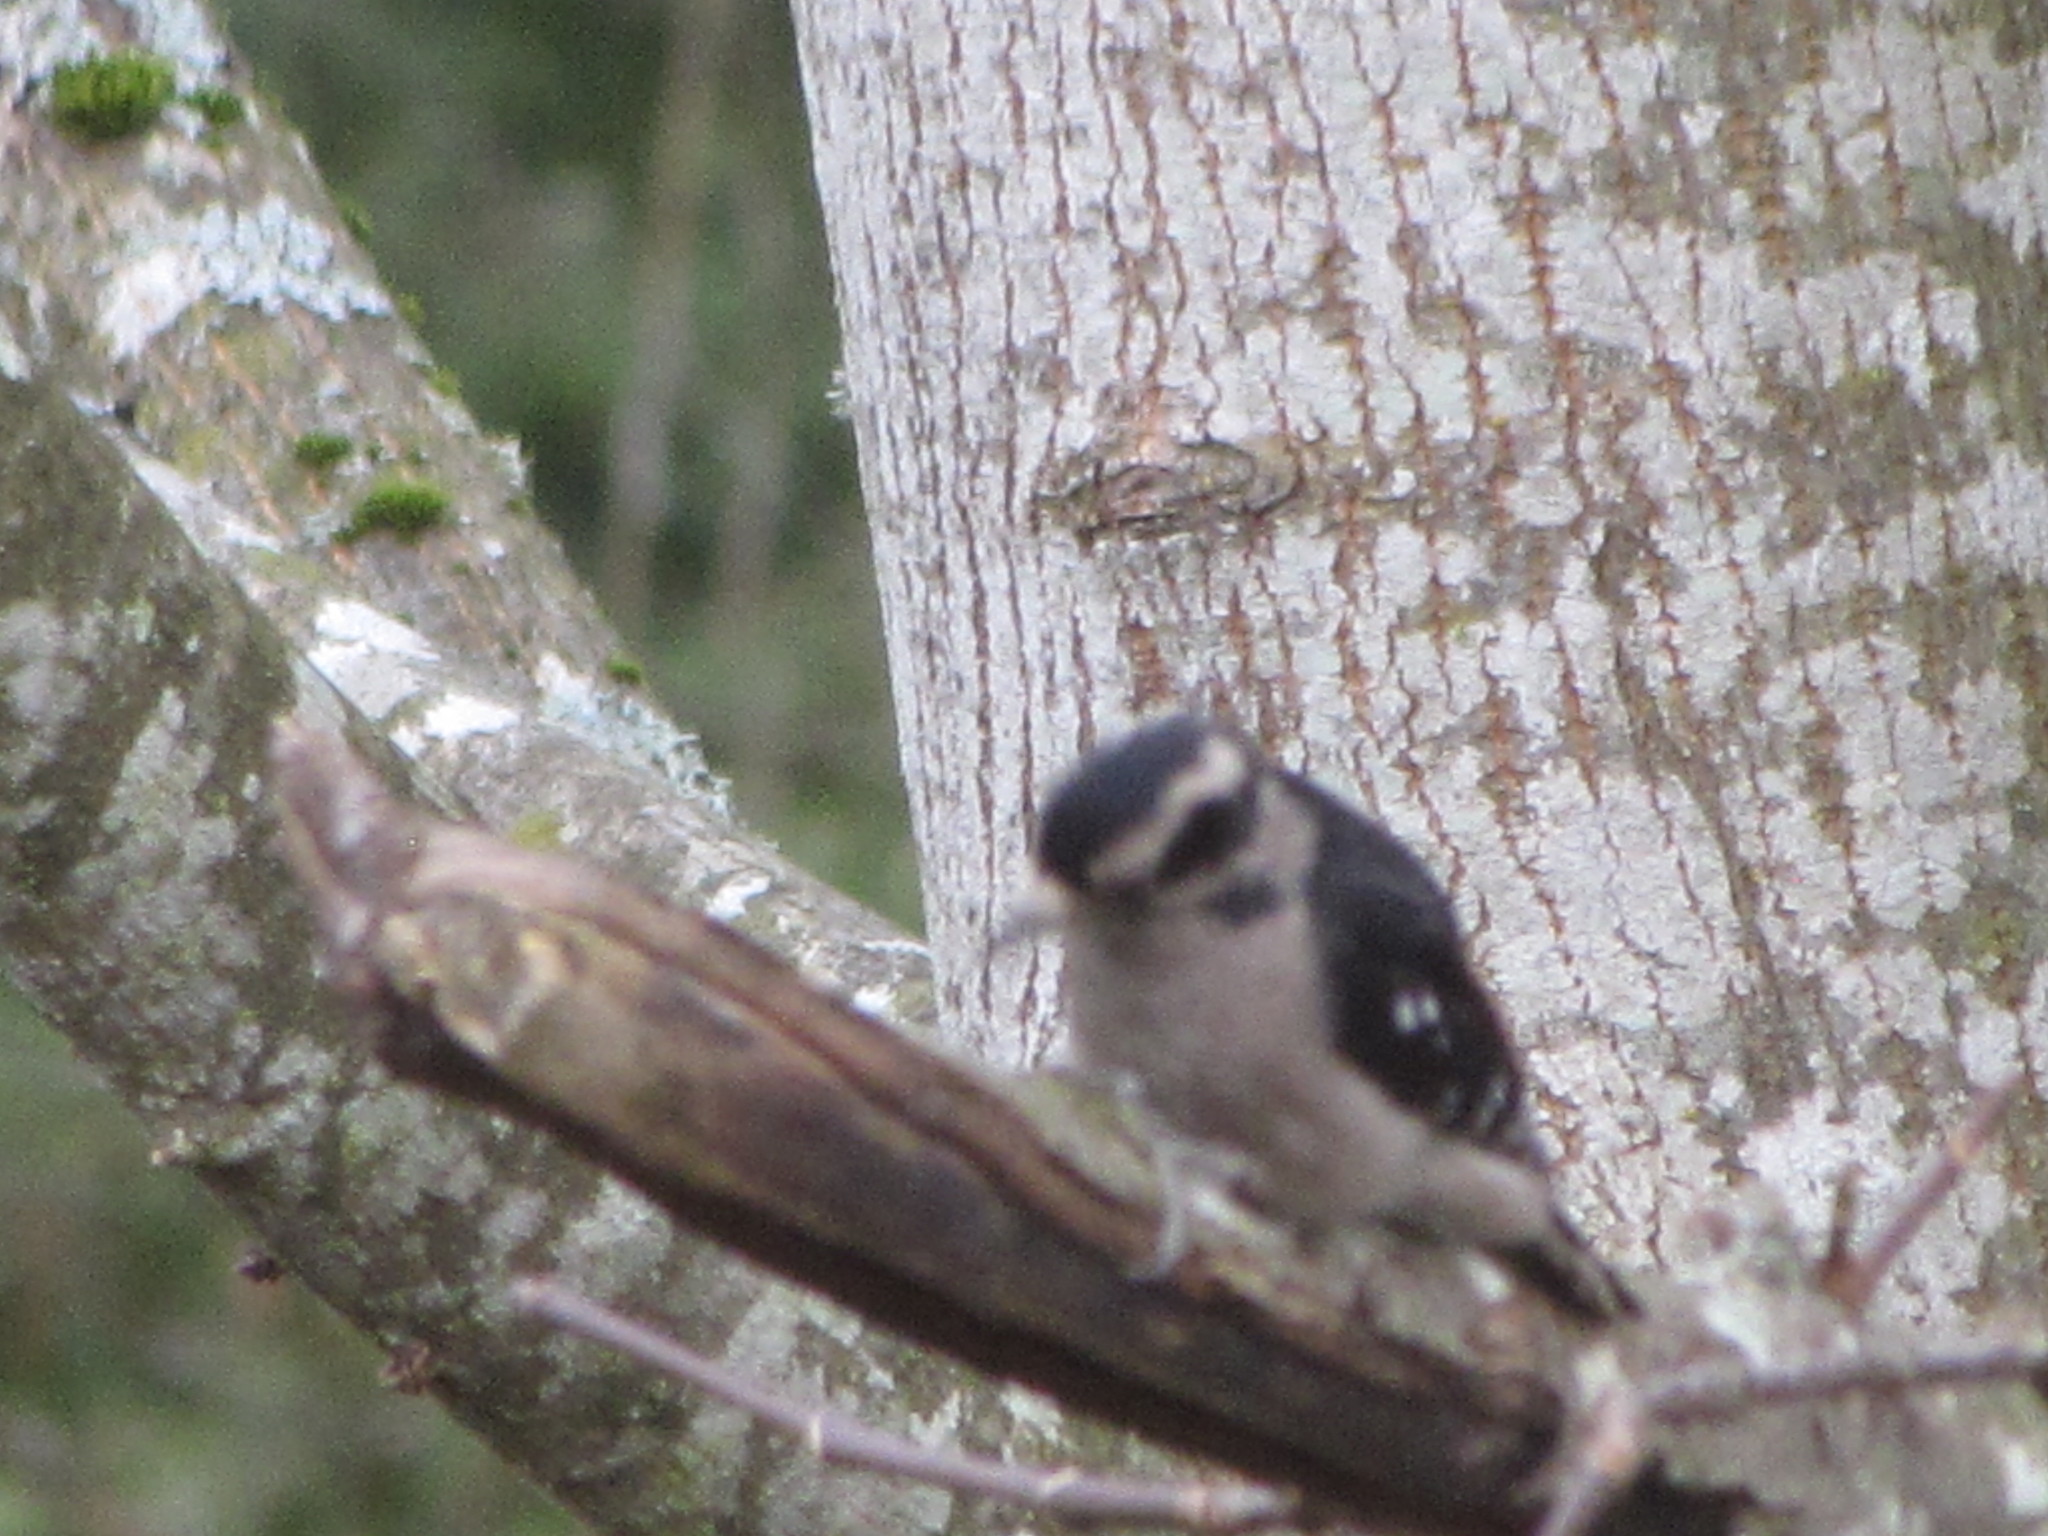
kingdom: Animalia
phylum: Chordata
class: Aves
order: Piciformes
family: Picidae
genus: Dryobates
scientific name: Dryobates pubescens
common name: Downy woodpecker
